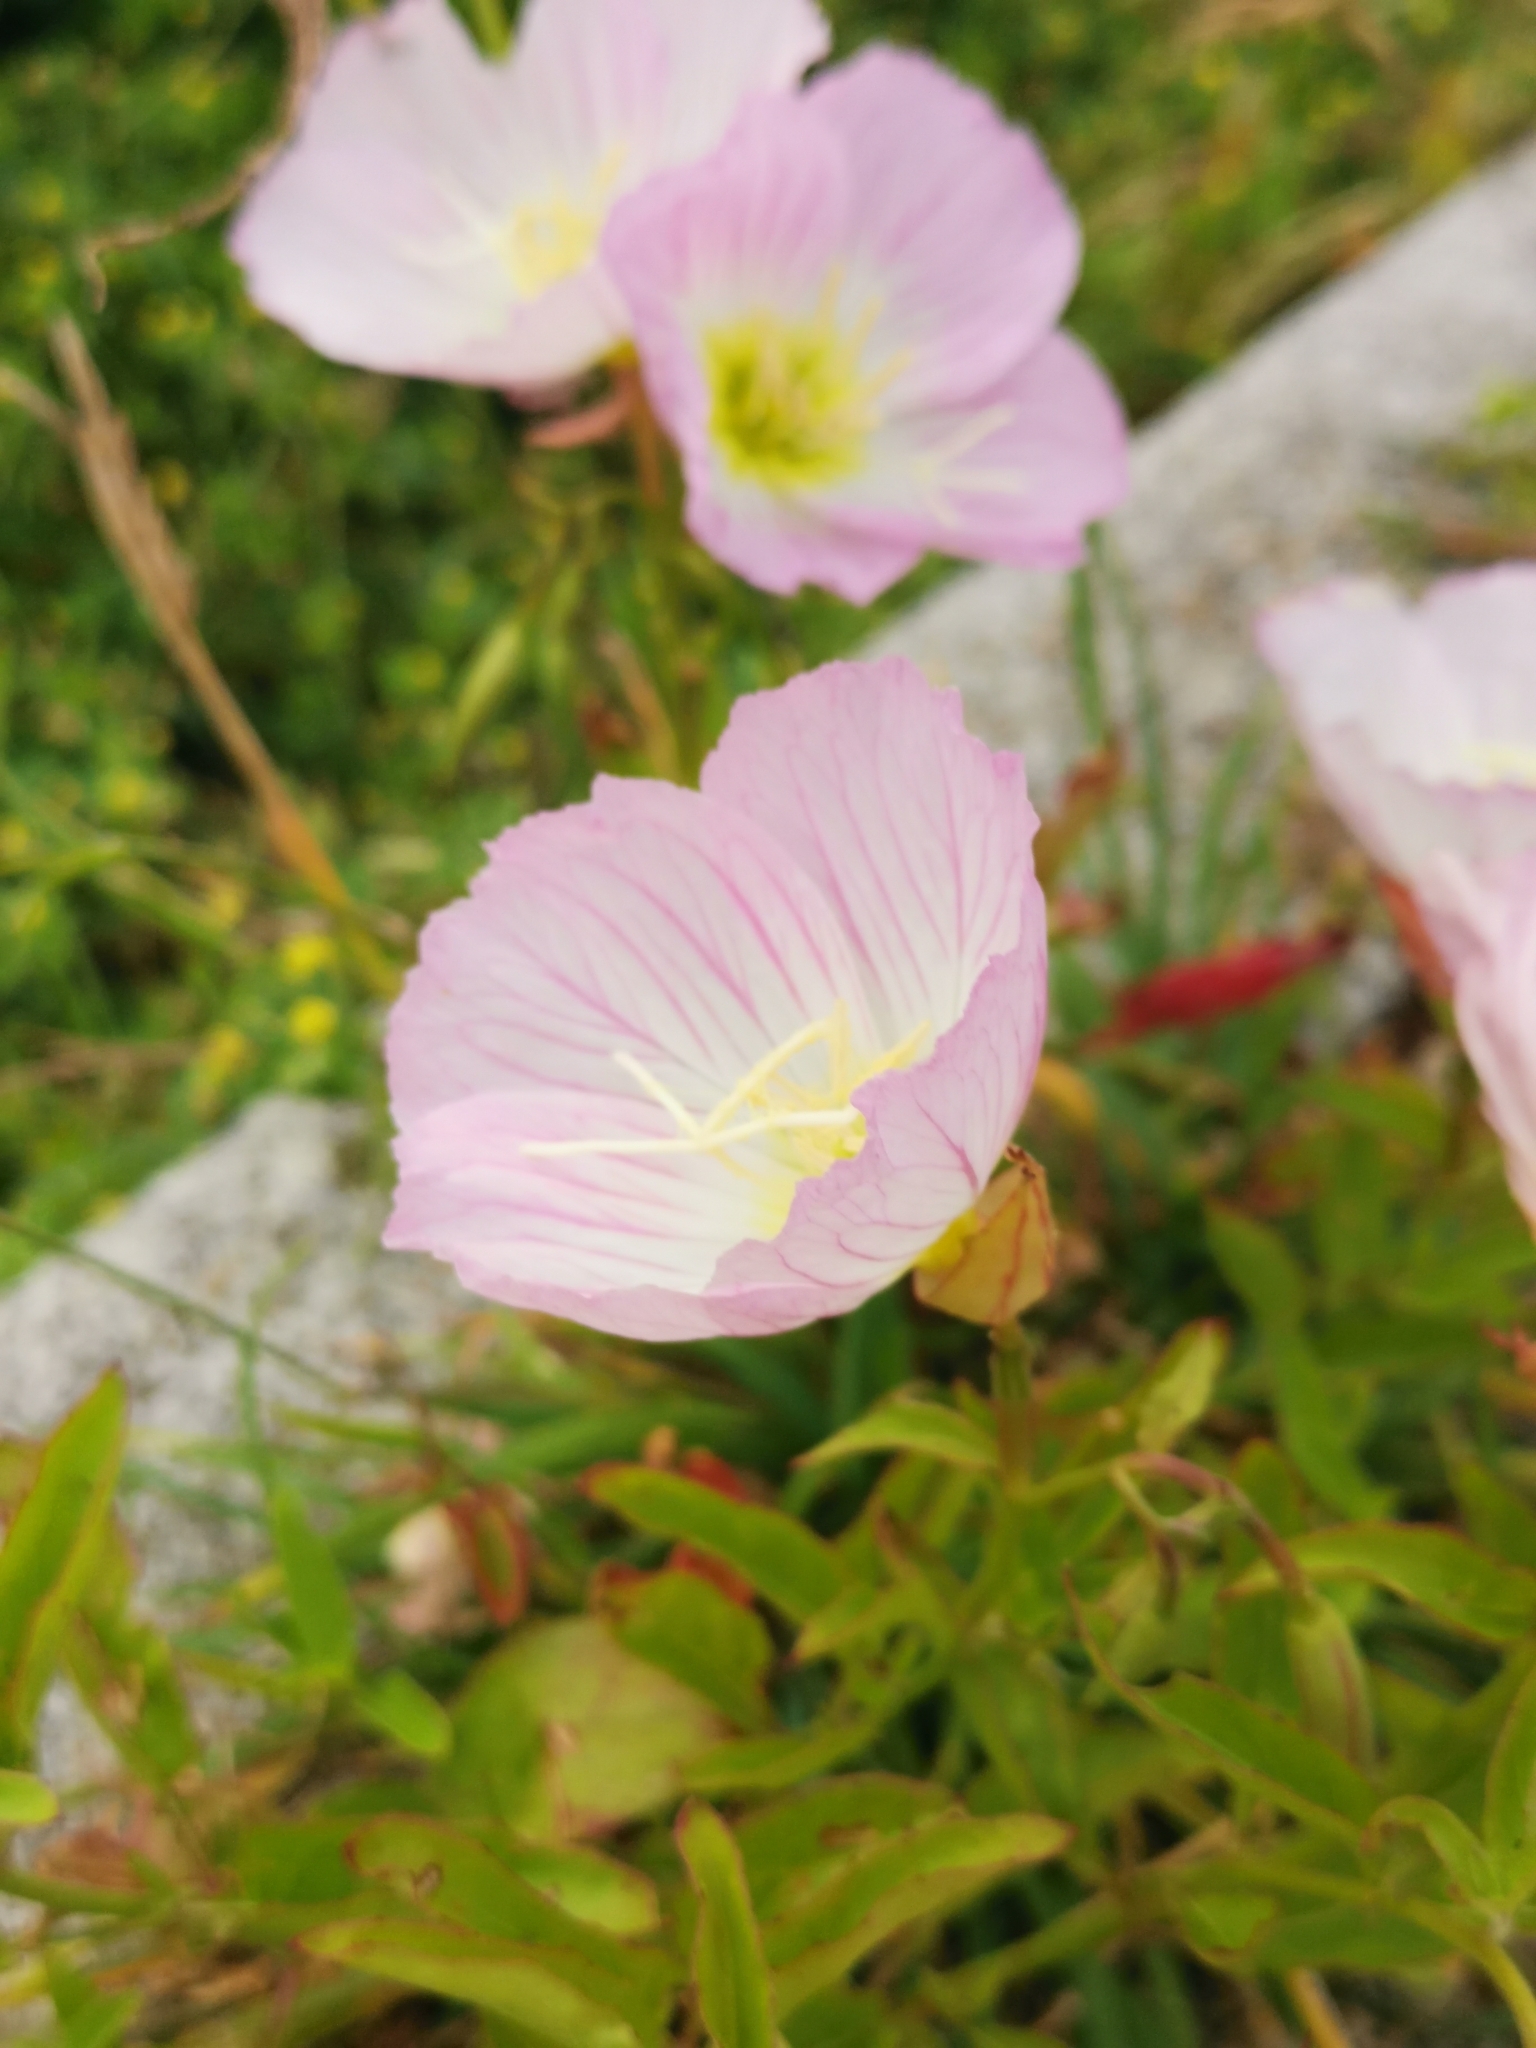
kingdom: Plantae
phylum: Tracheophyta
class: Magnoliopsida
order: Myrtales
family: Onagraceae
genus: Oenothera
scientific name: Oenothera speciosa
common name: White evening-primrose
